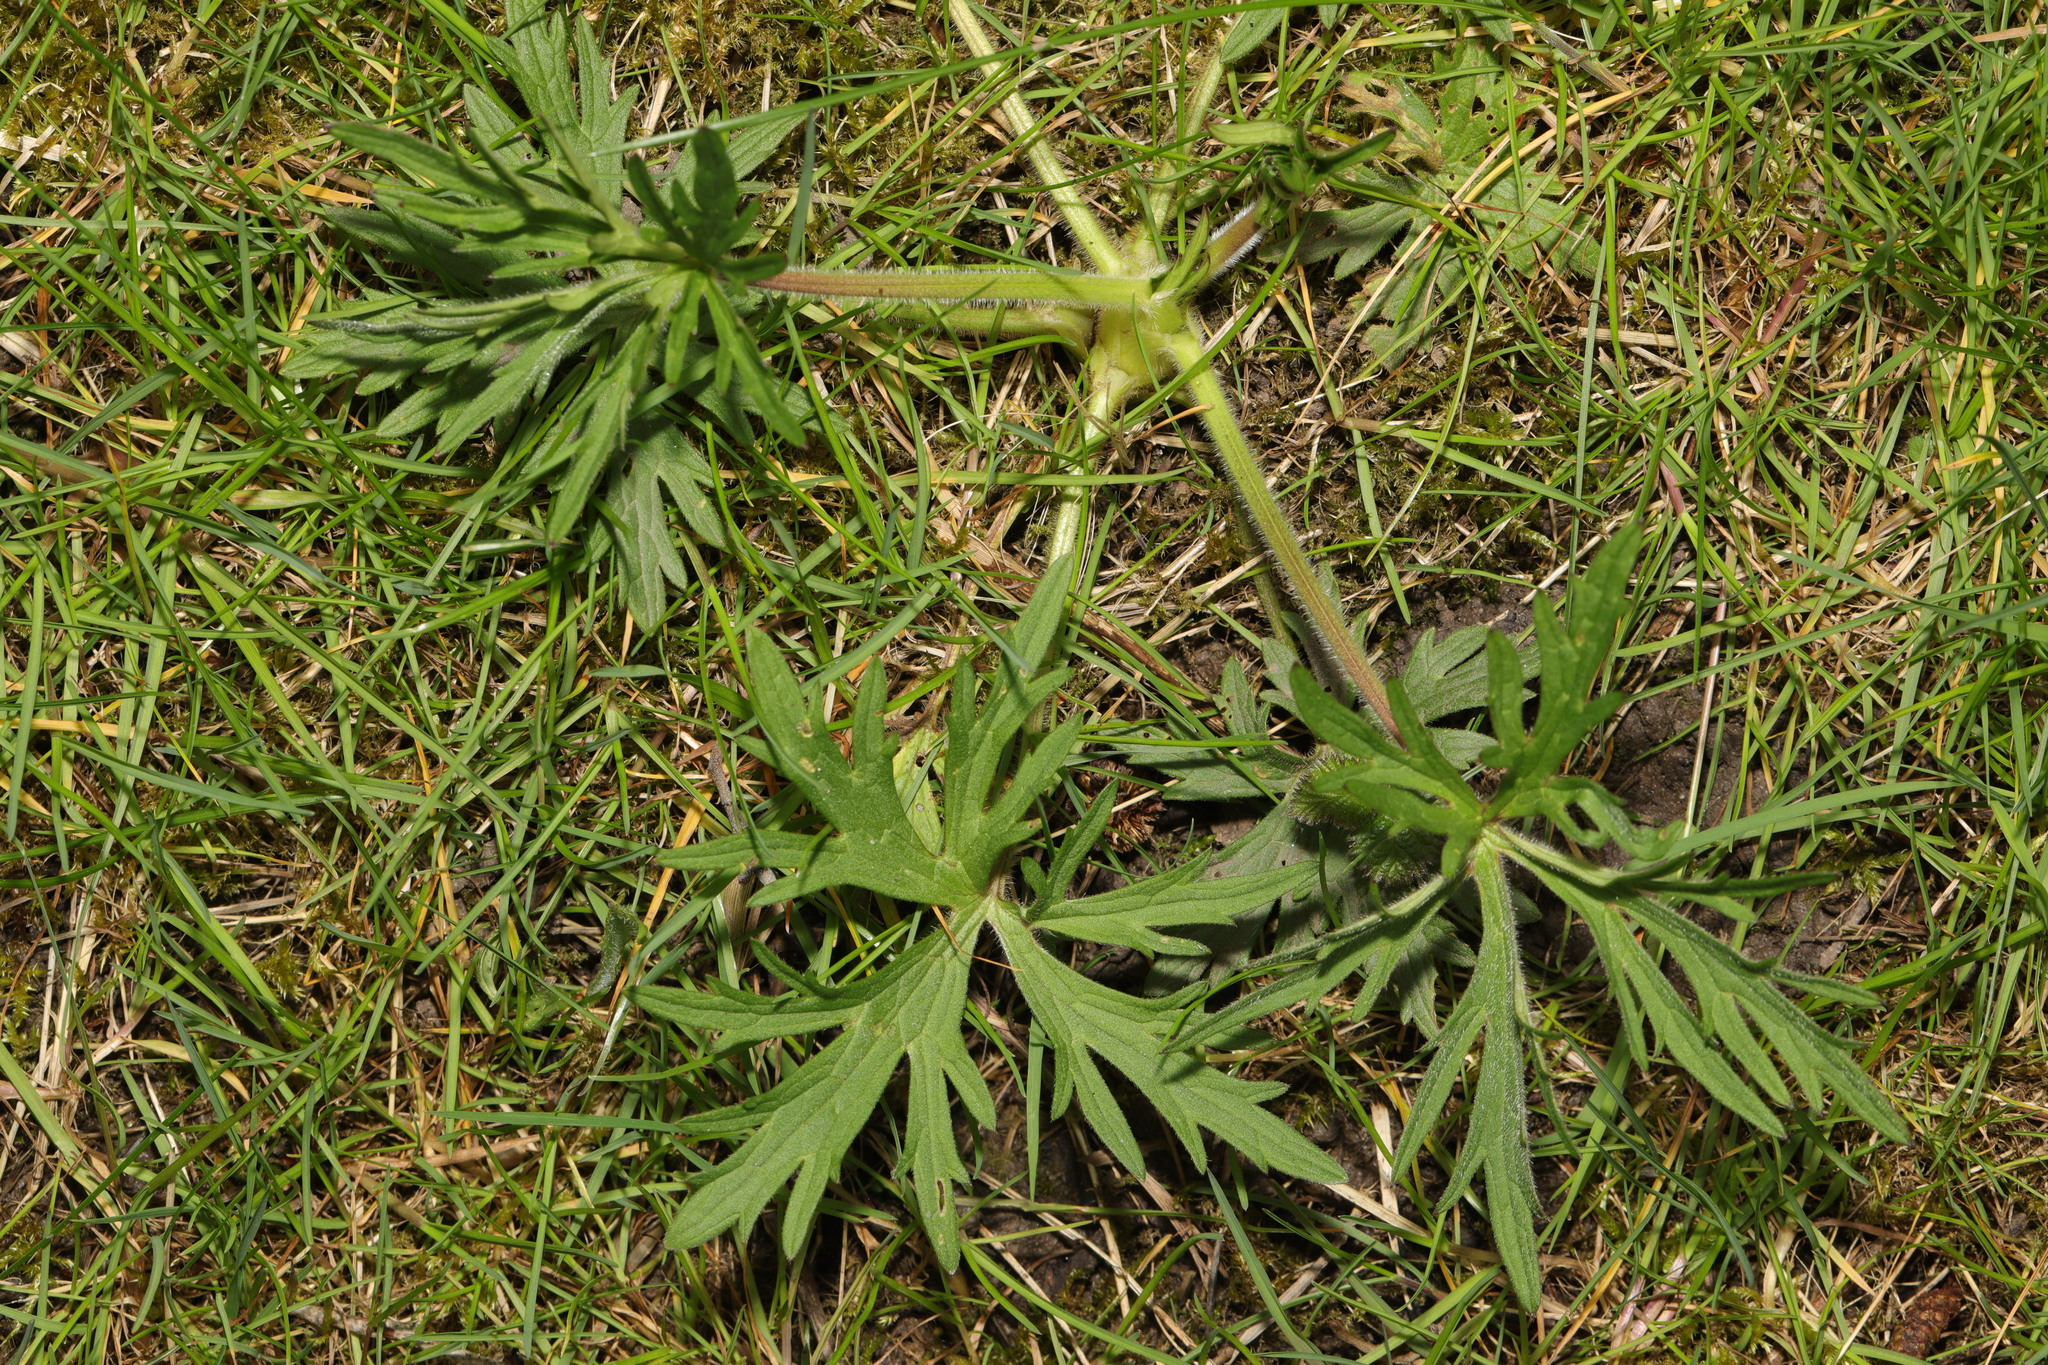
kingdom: Plantae
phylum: Tracheophyta
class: Magnoliopsida
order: Ranunculales
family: Ranunculaceae
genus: Ranunculus
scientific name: Ranunculus acris
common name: Meadow buttercup
